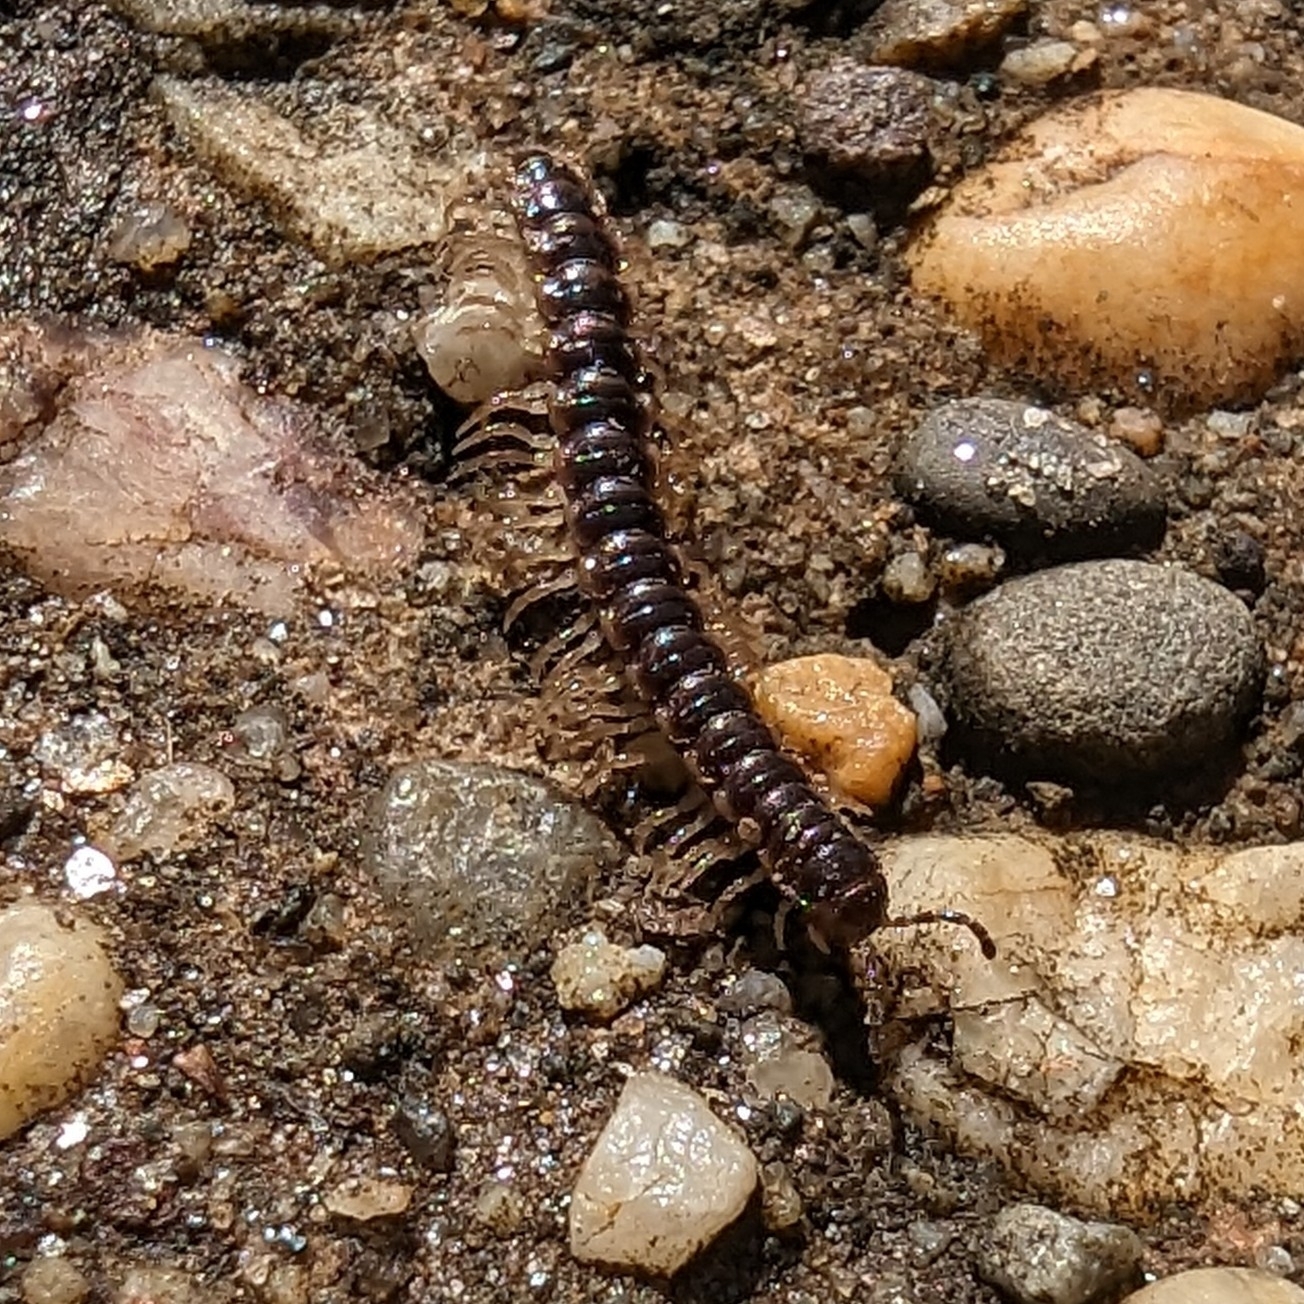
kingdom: Animalia
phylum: Arthropoda
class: Diplopoda
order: Polydesmida
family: Paradoxosomatidae
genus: Oxidus
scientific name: Oxidus gracilis
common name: Greenhouse millipede
